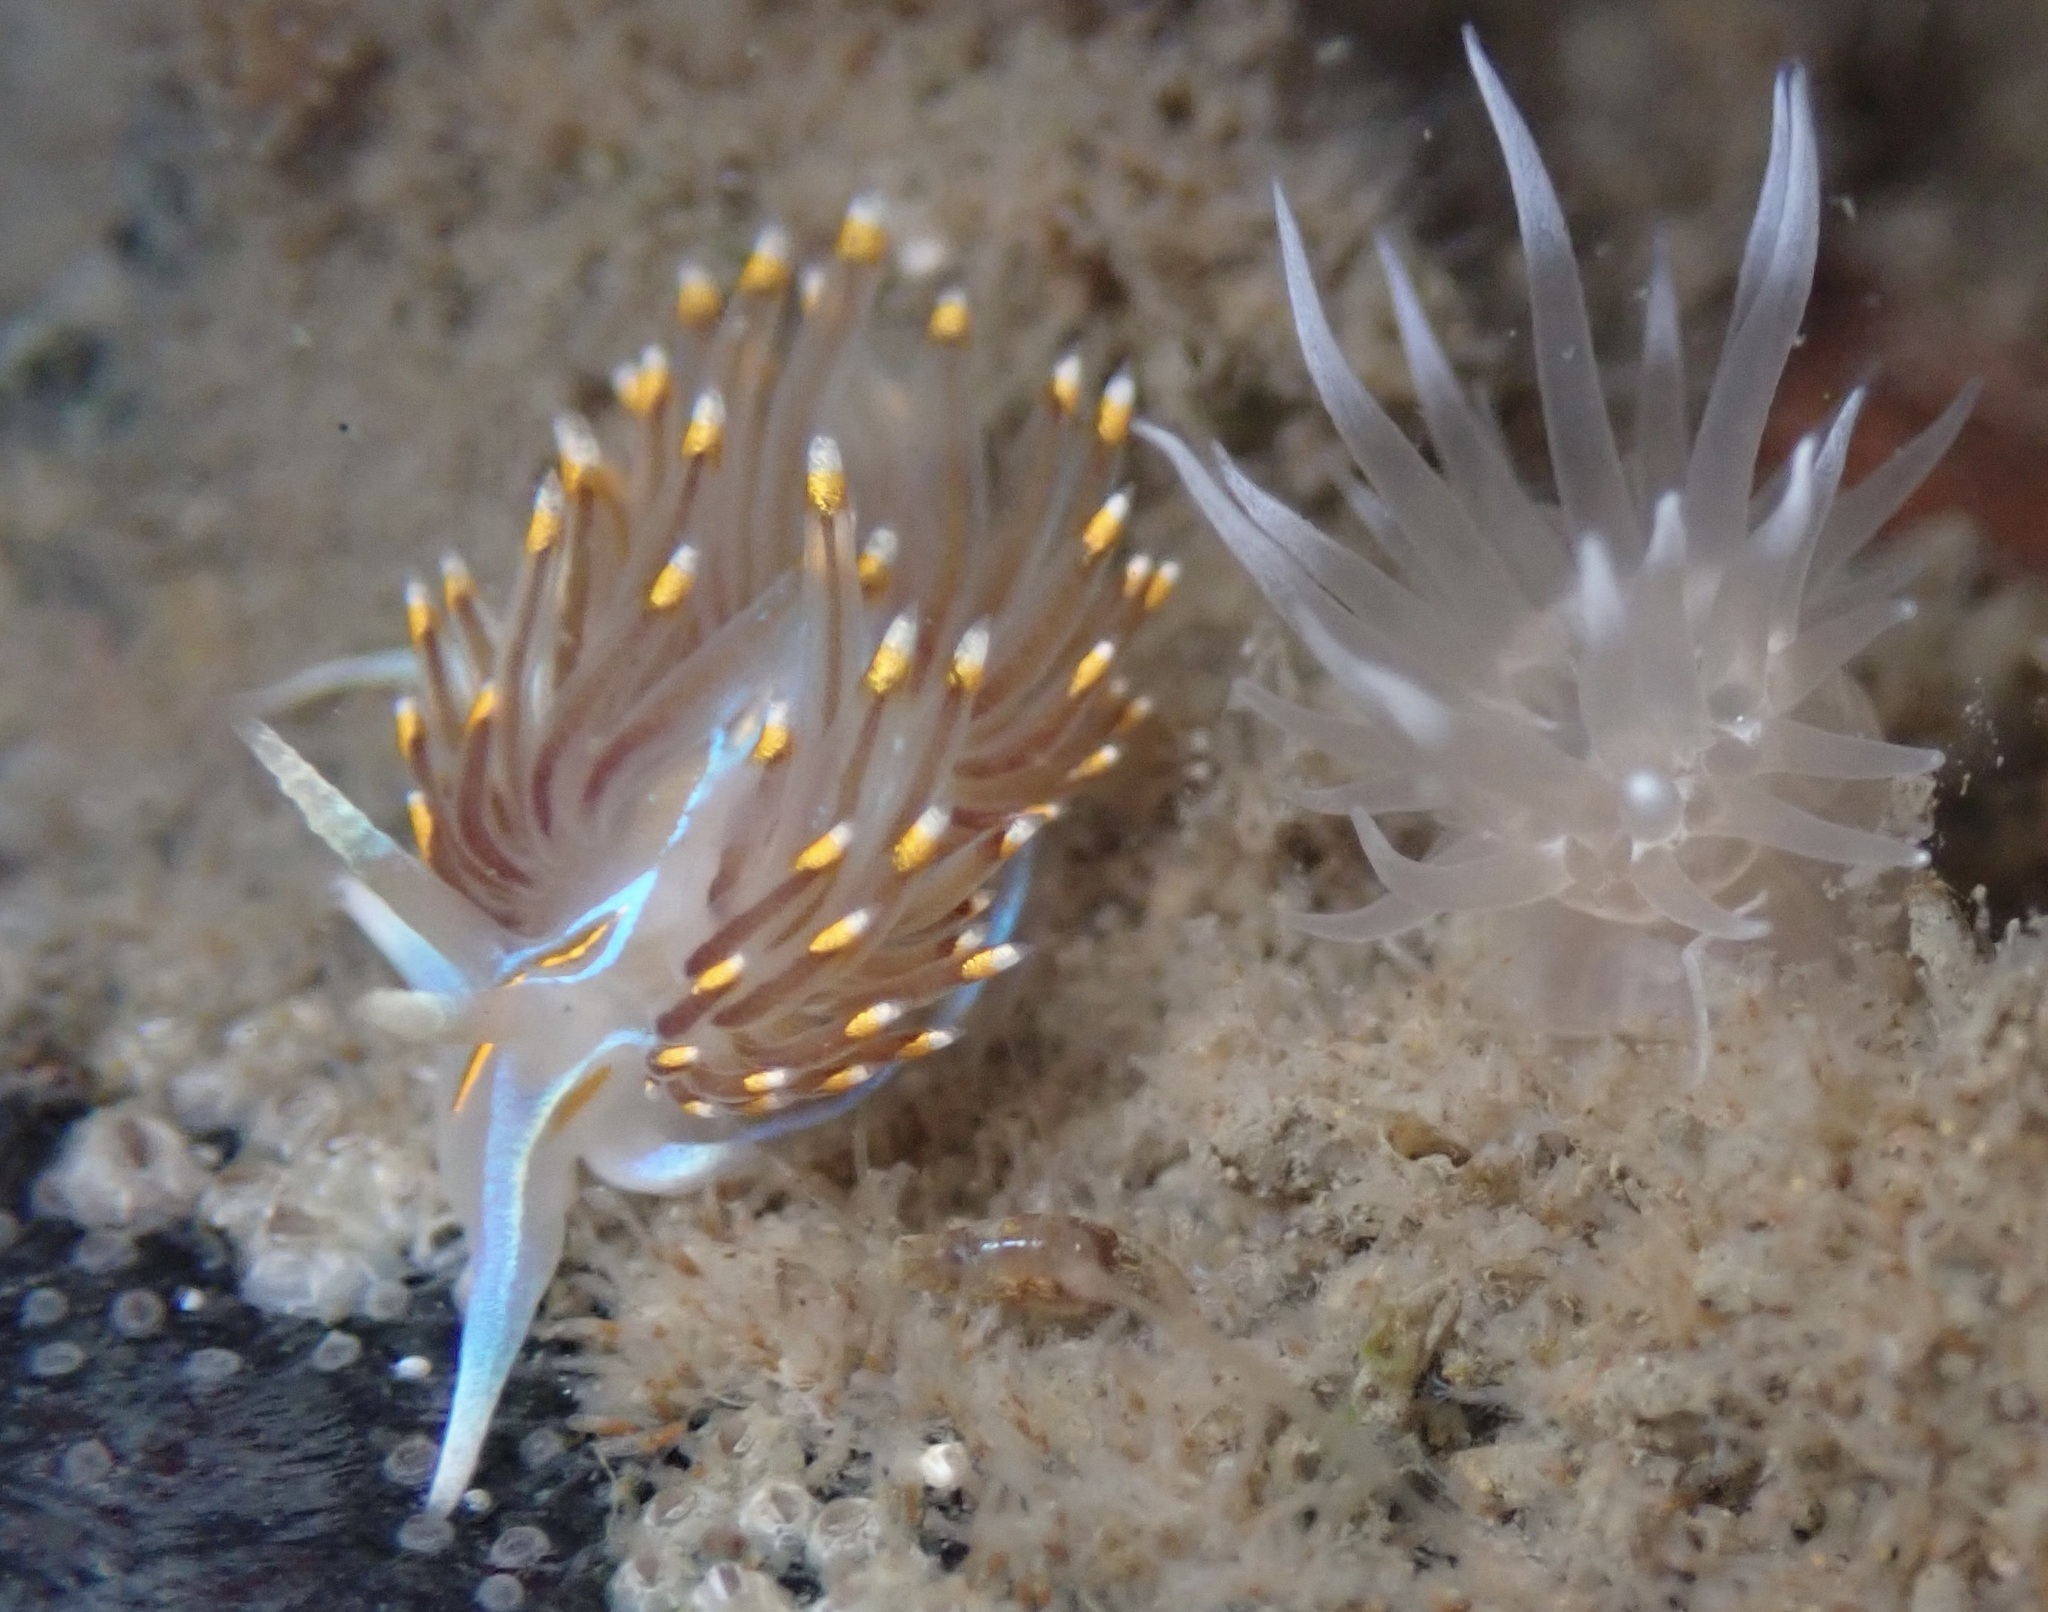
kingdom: Animalia
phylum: Mollusca
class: Gastropoda
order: Nudibranchia
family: Myrrhinidae
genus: Hermissenda
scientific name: Hermissenda opalescens
